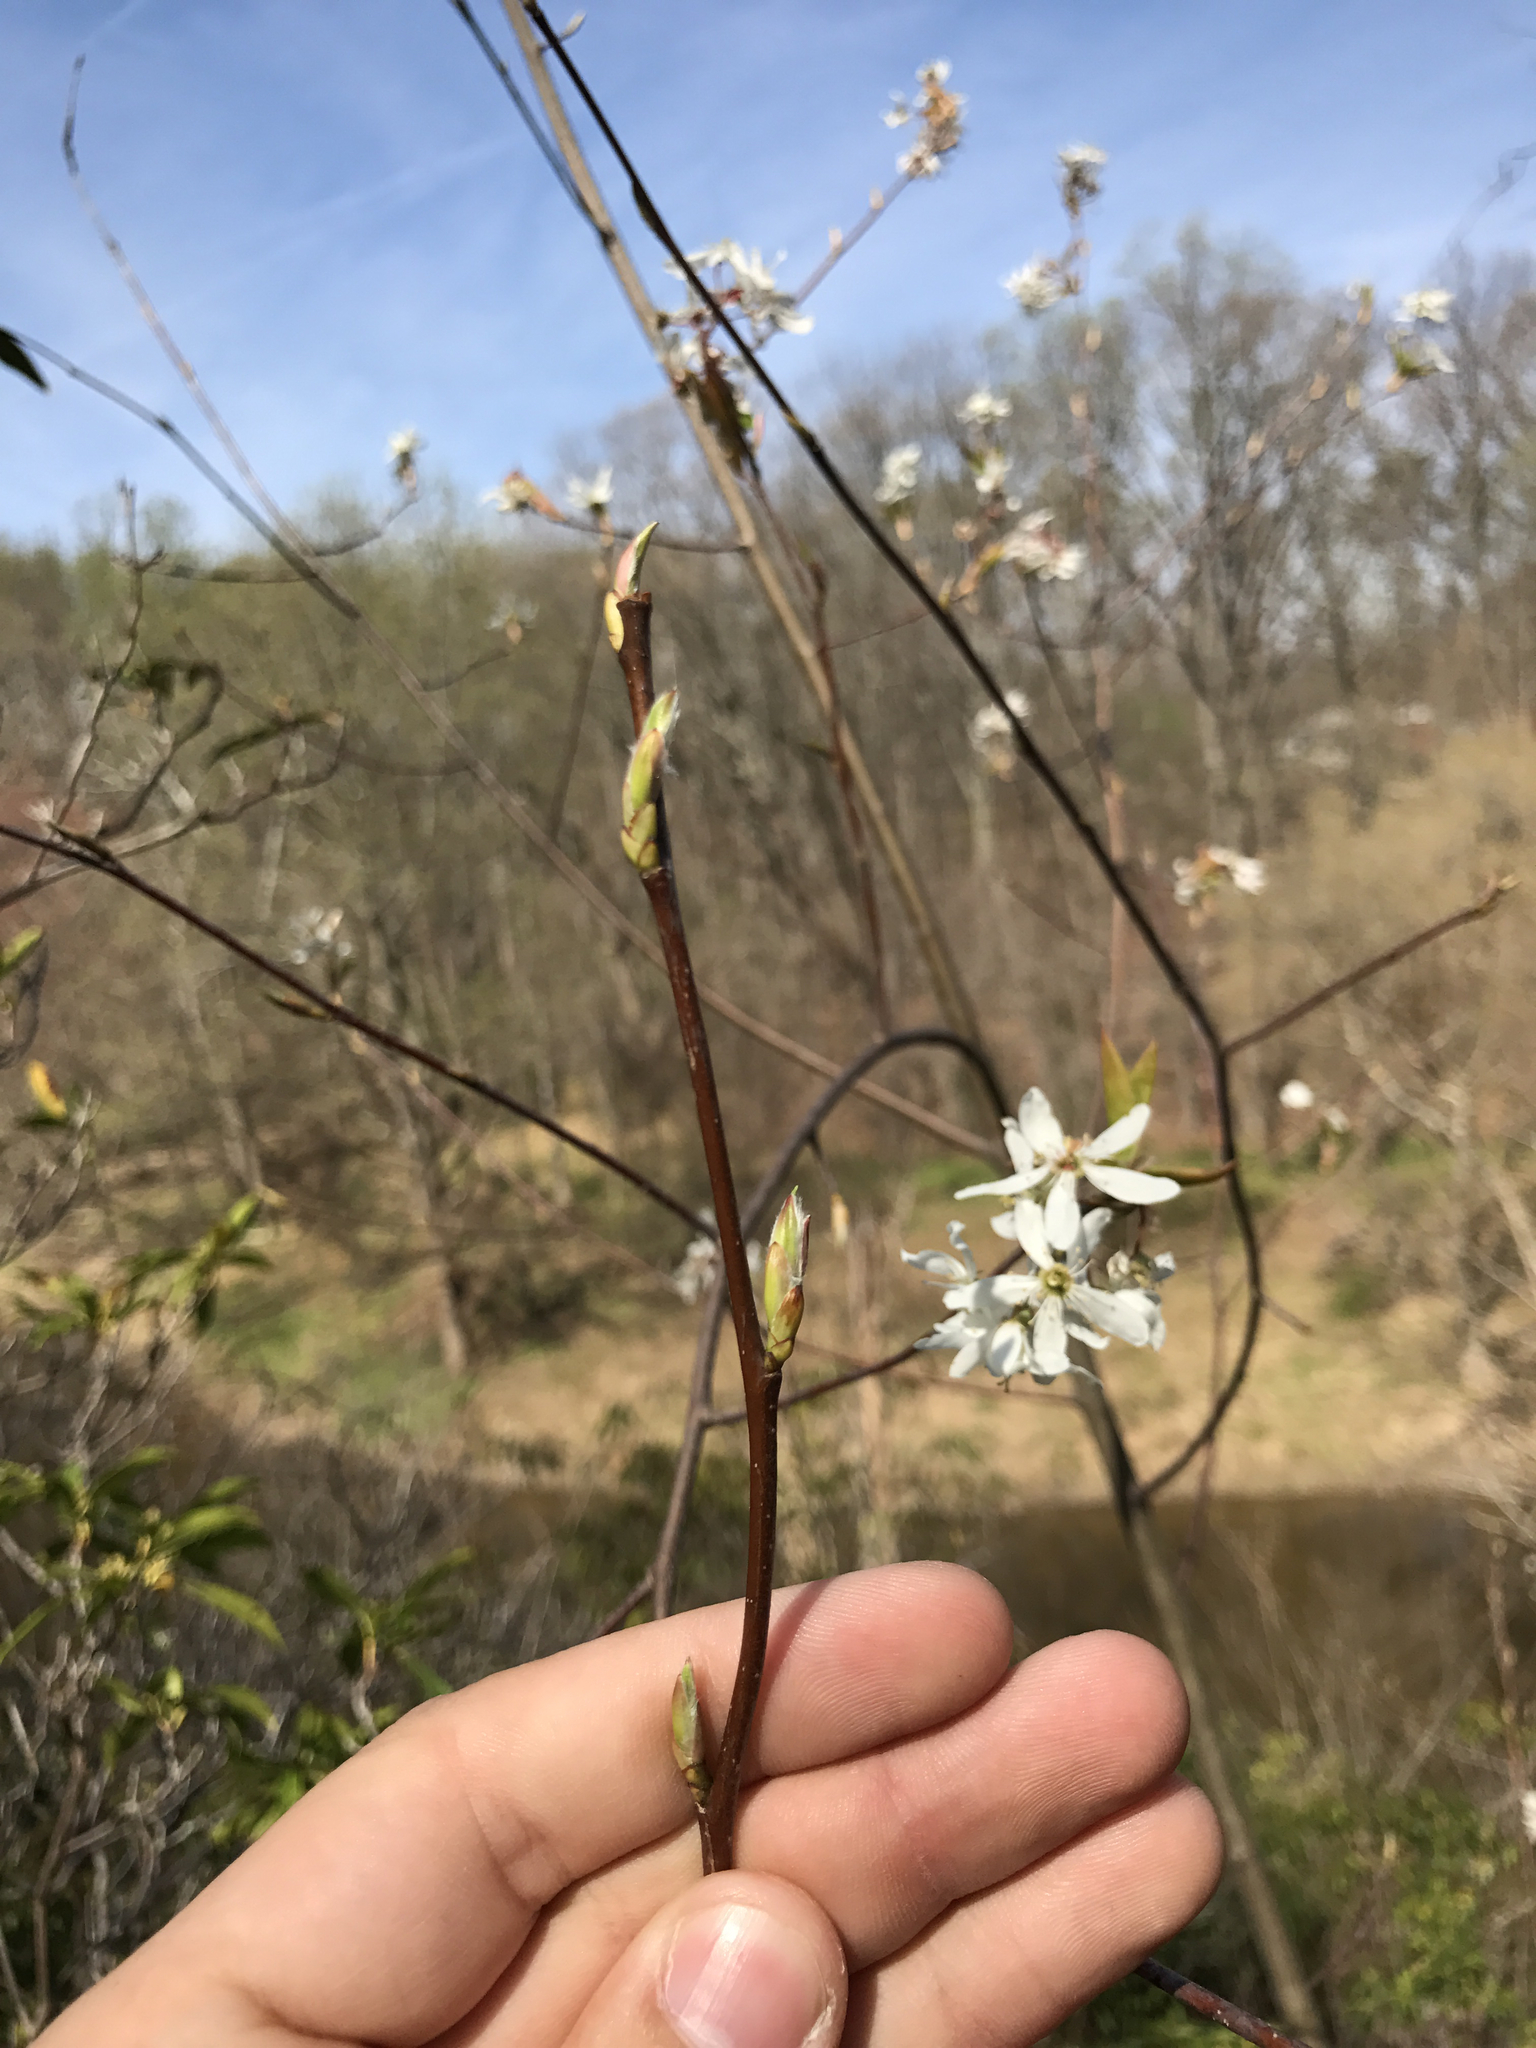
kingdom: Plantae
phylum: Tracheophyta
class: Magnoliopsida
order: Rosales
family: Rosaceae
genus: Amelanchier
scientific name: Amelanchier laevis
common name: Allegheny serviceberry
